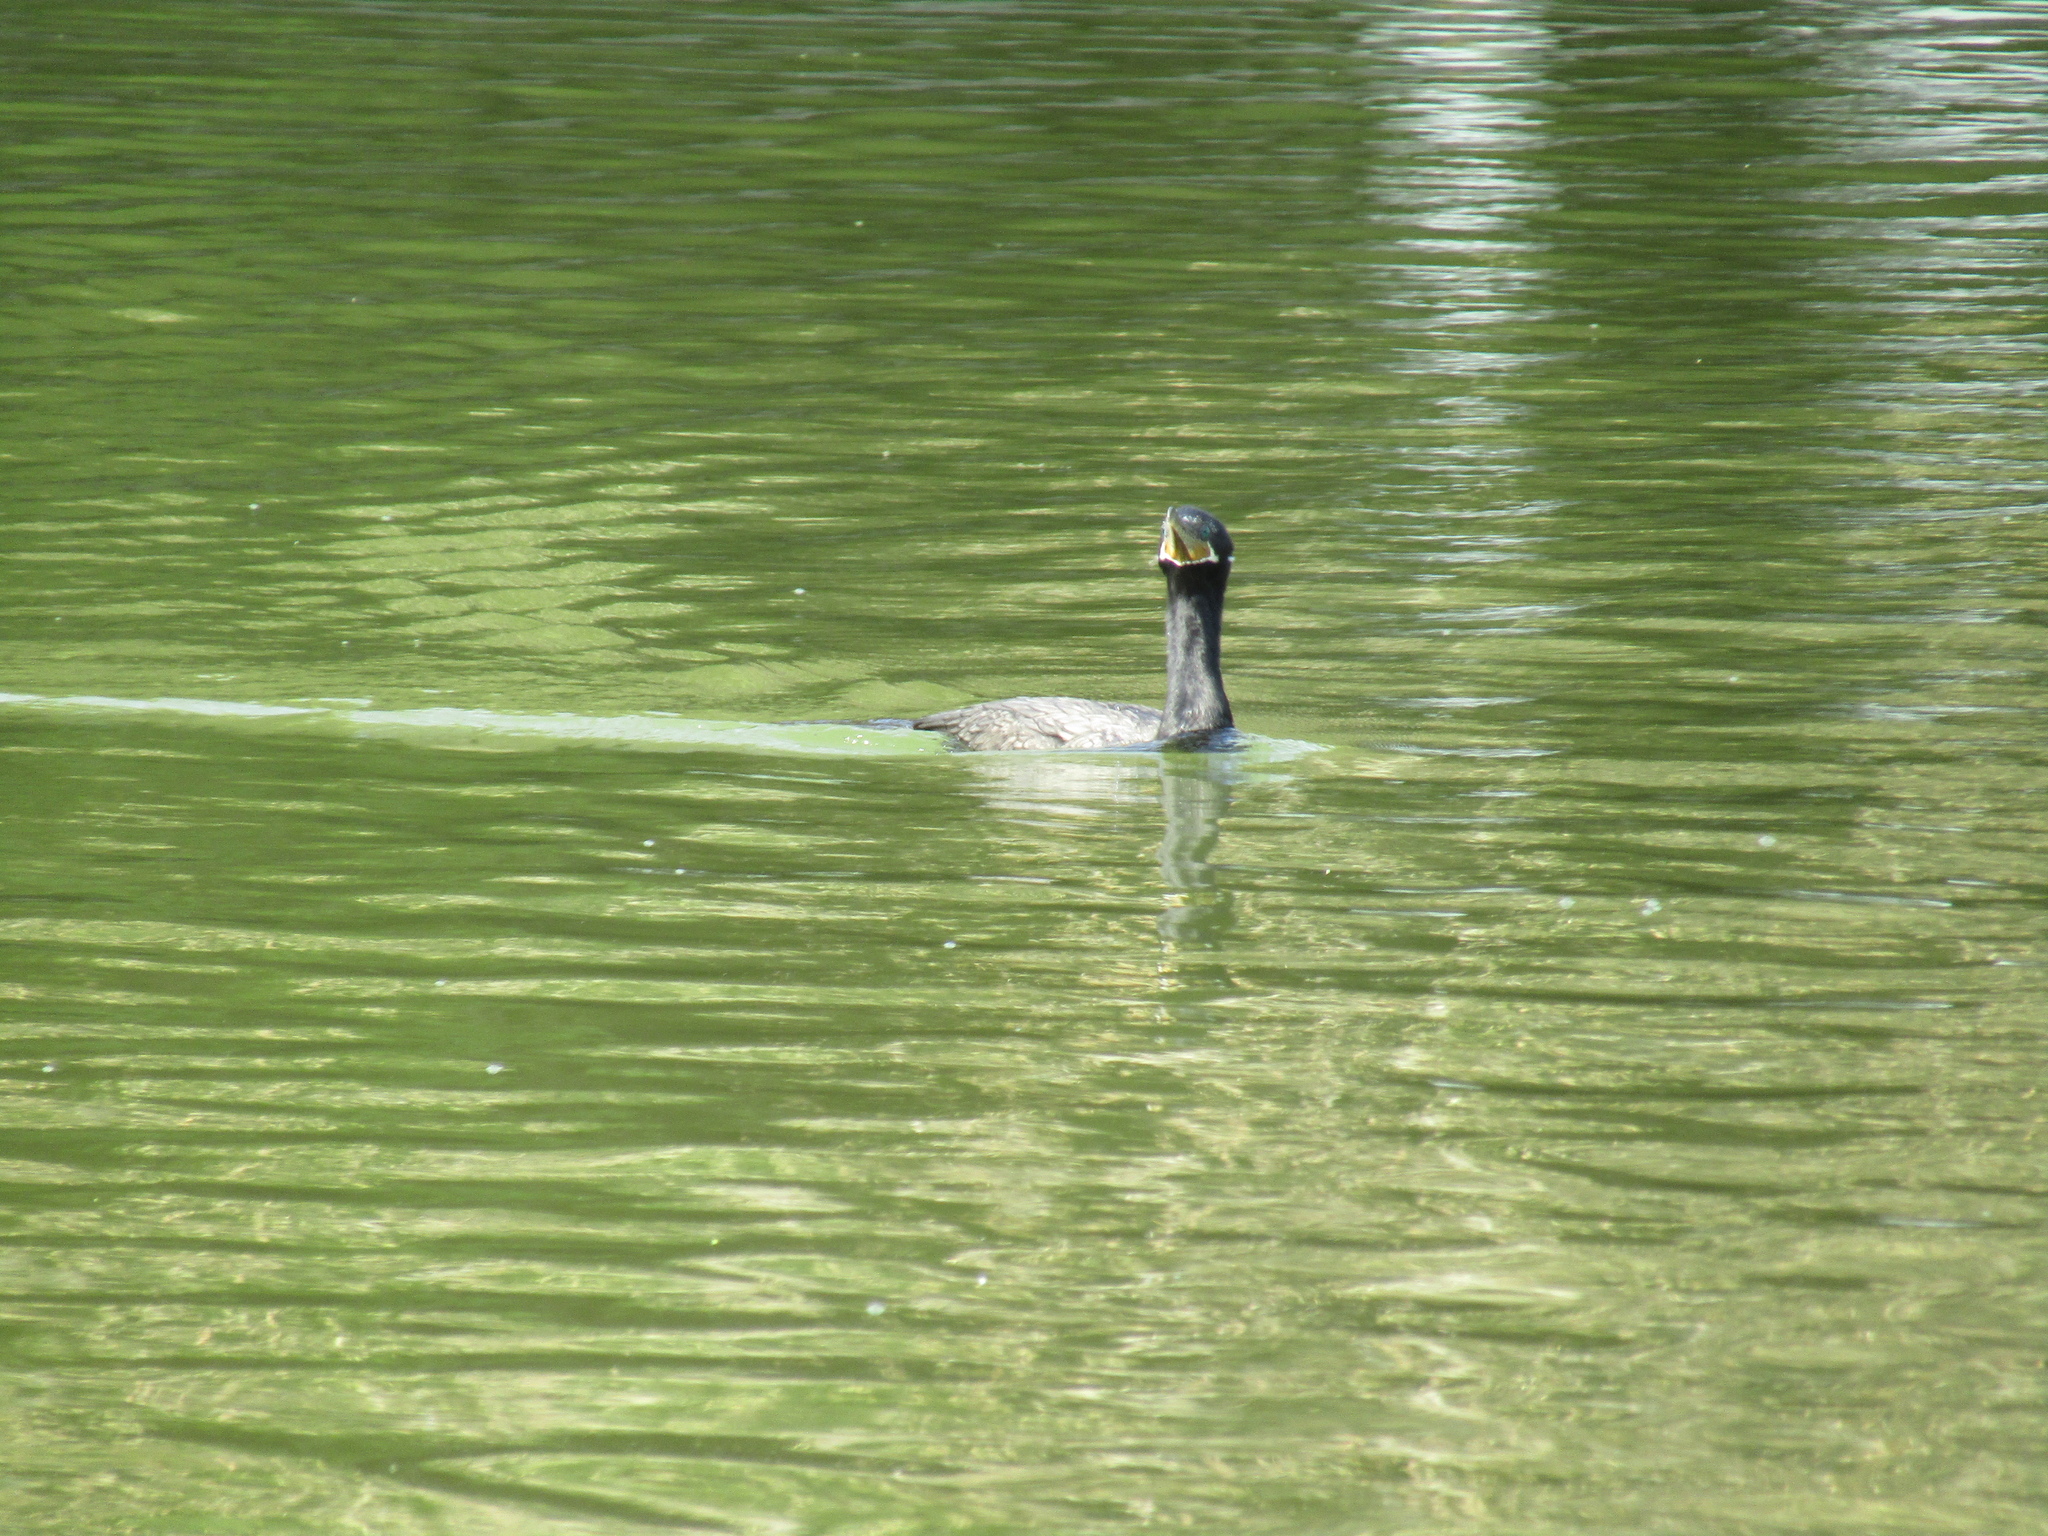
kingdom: Animalia
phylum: Chordata
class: Aves
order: Suliformes
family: Phalacrocoracidae
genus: Phalacrocorax
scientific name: Phalacrocorax brasilianus
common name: Neotropic cormorant
